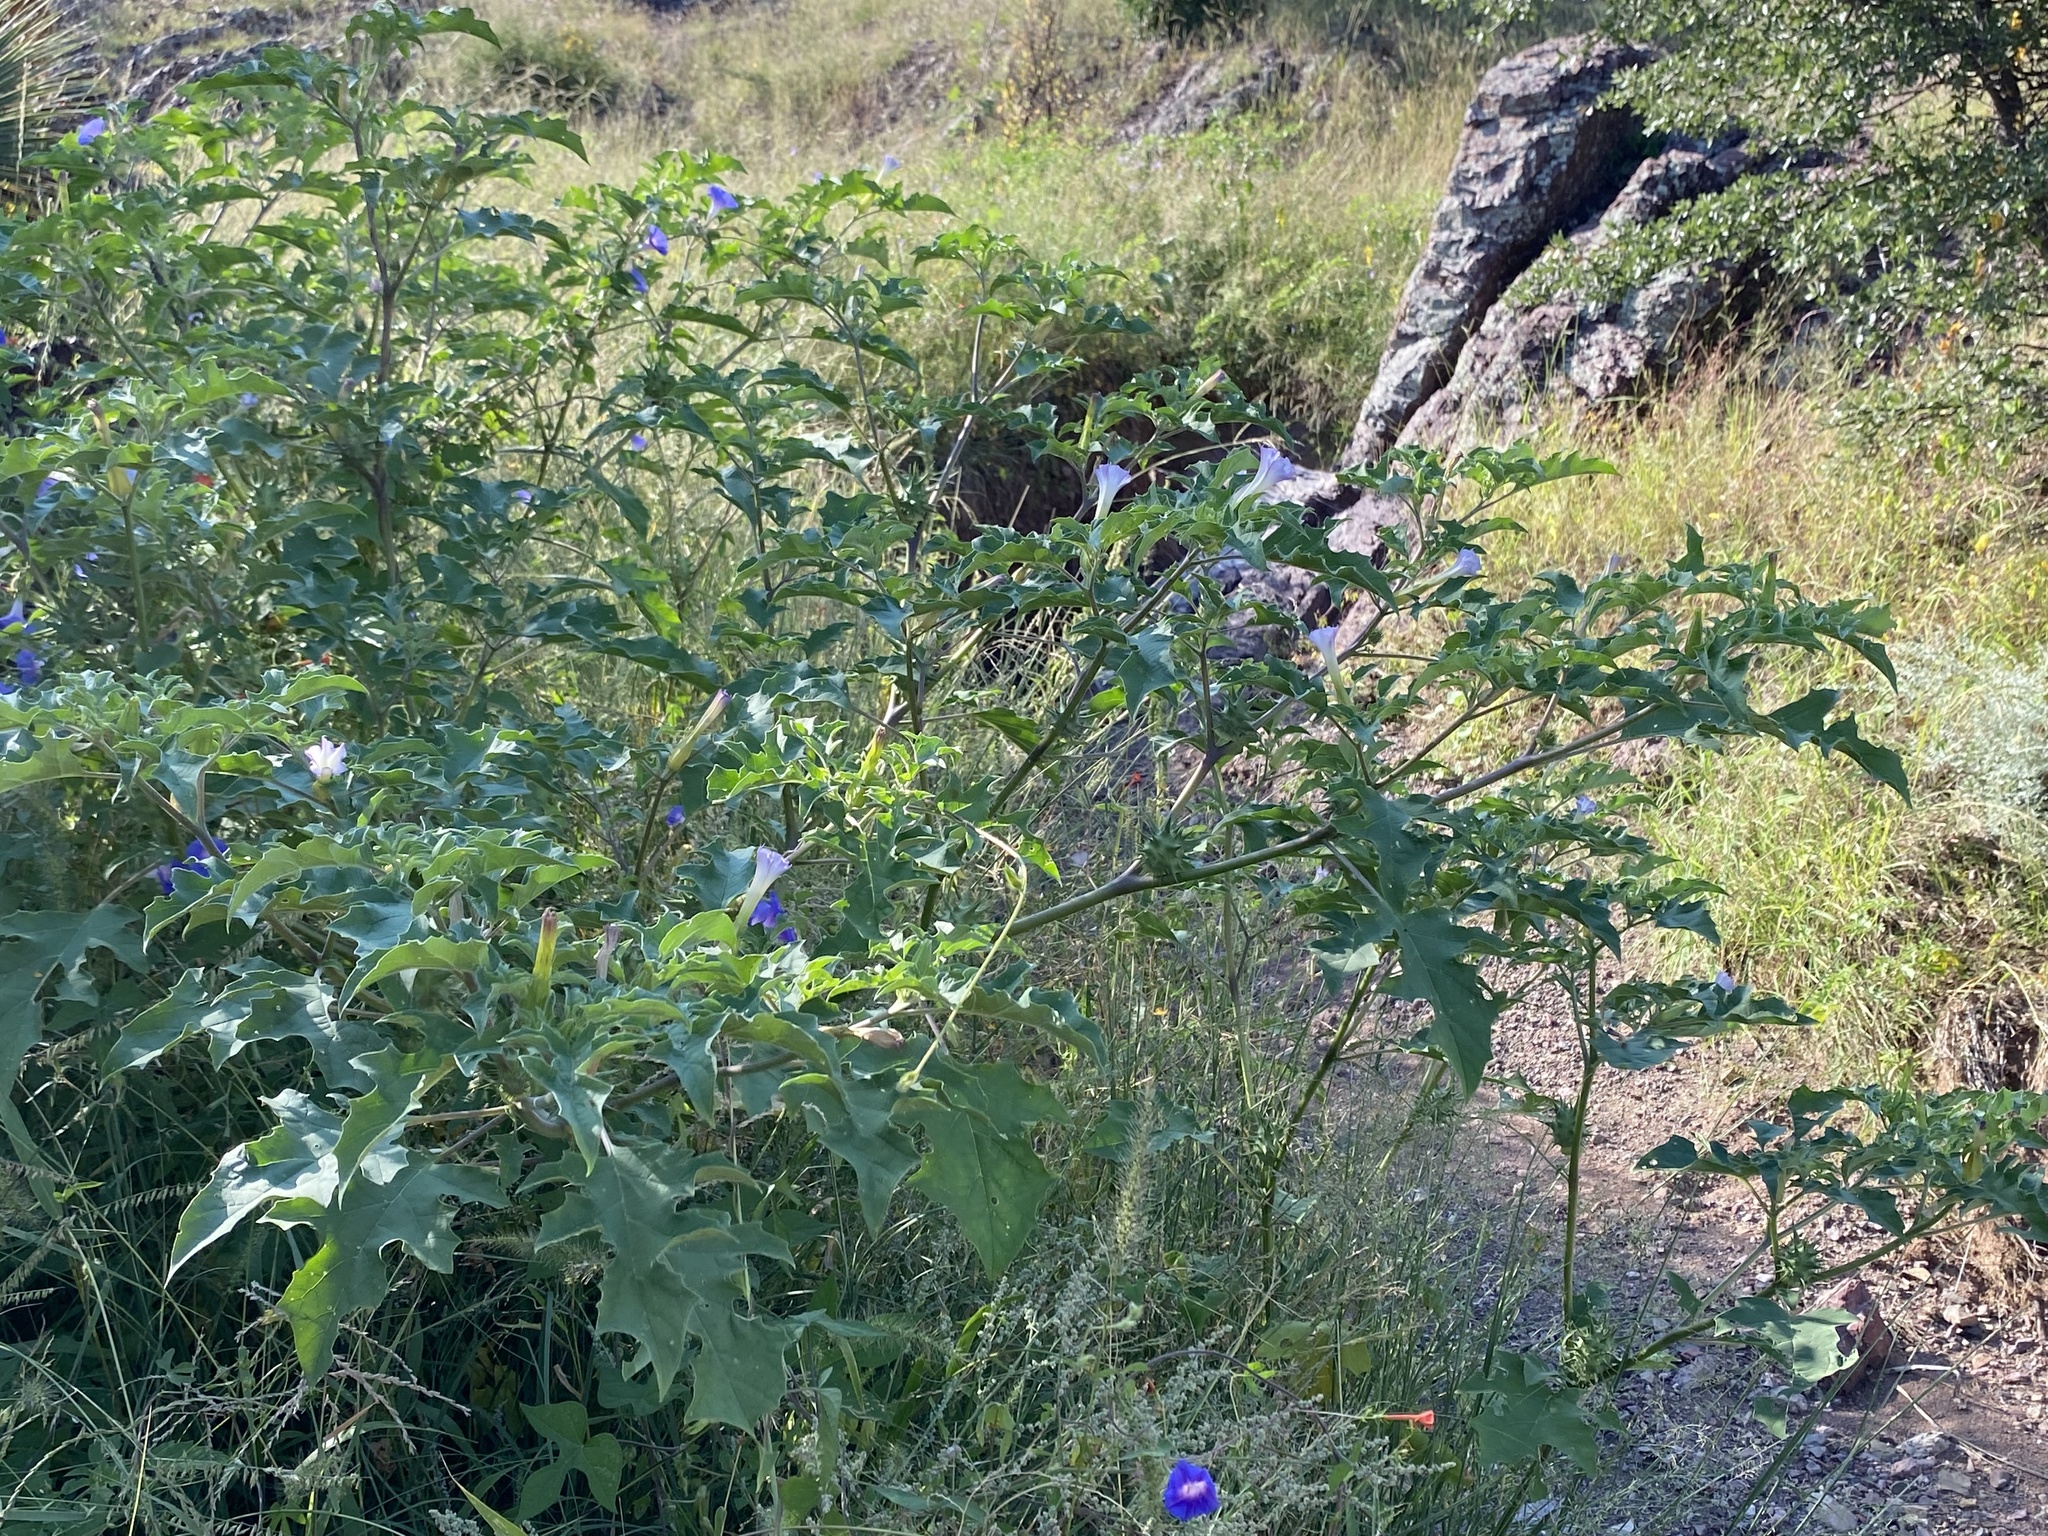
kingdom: Plantae
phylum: Tracheophyta
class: Magnoliopsida
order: Solanales
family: Solanaceae
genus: Datura
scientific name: Datura quercifolia
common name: Oak-leaf datura
